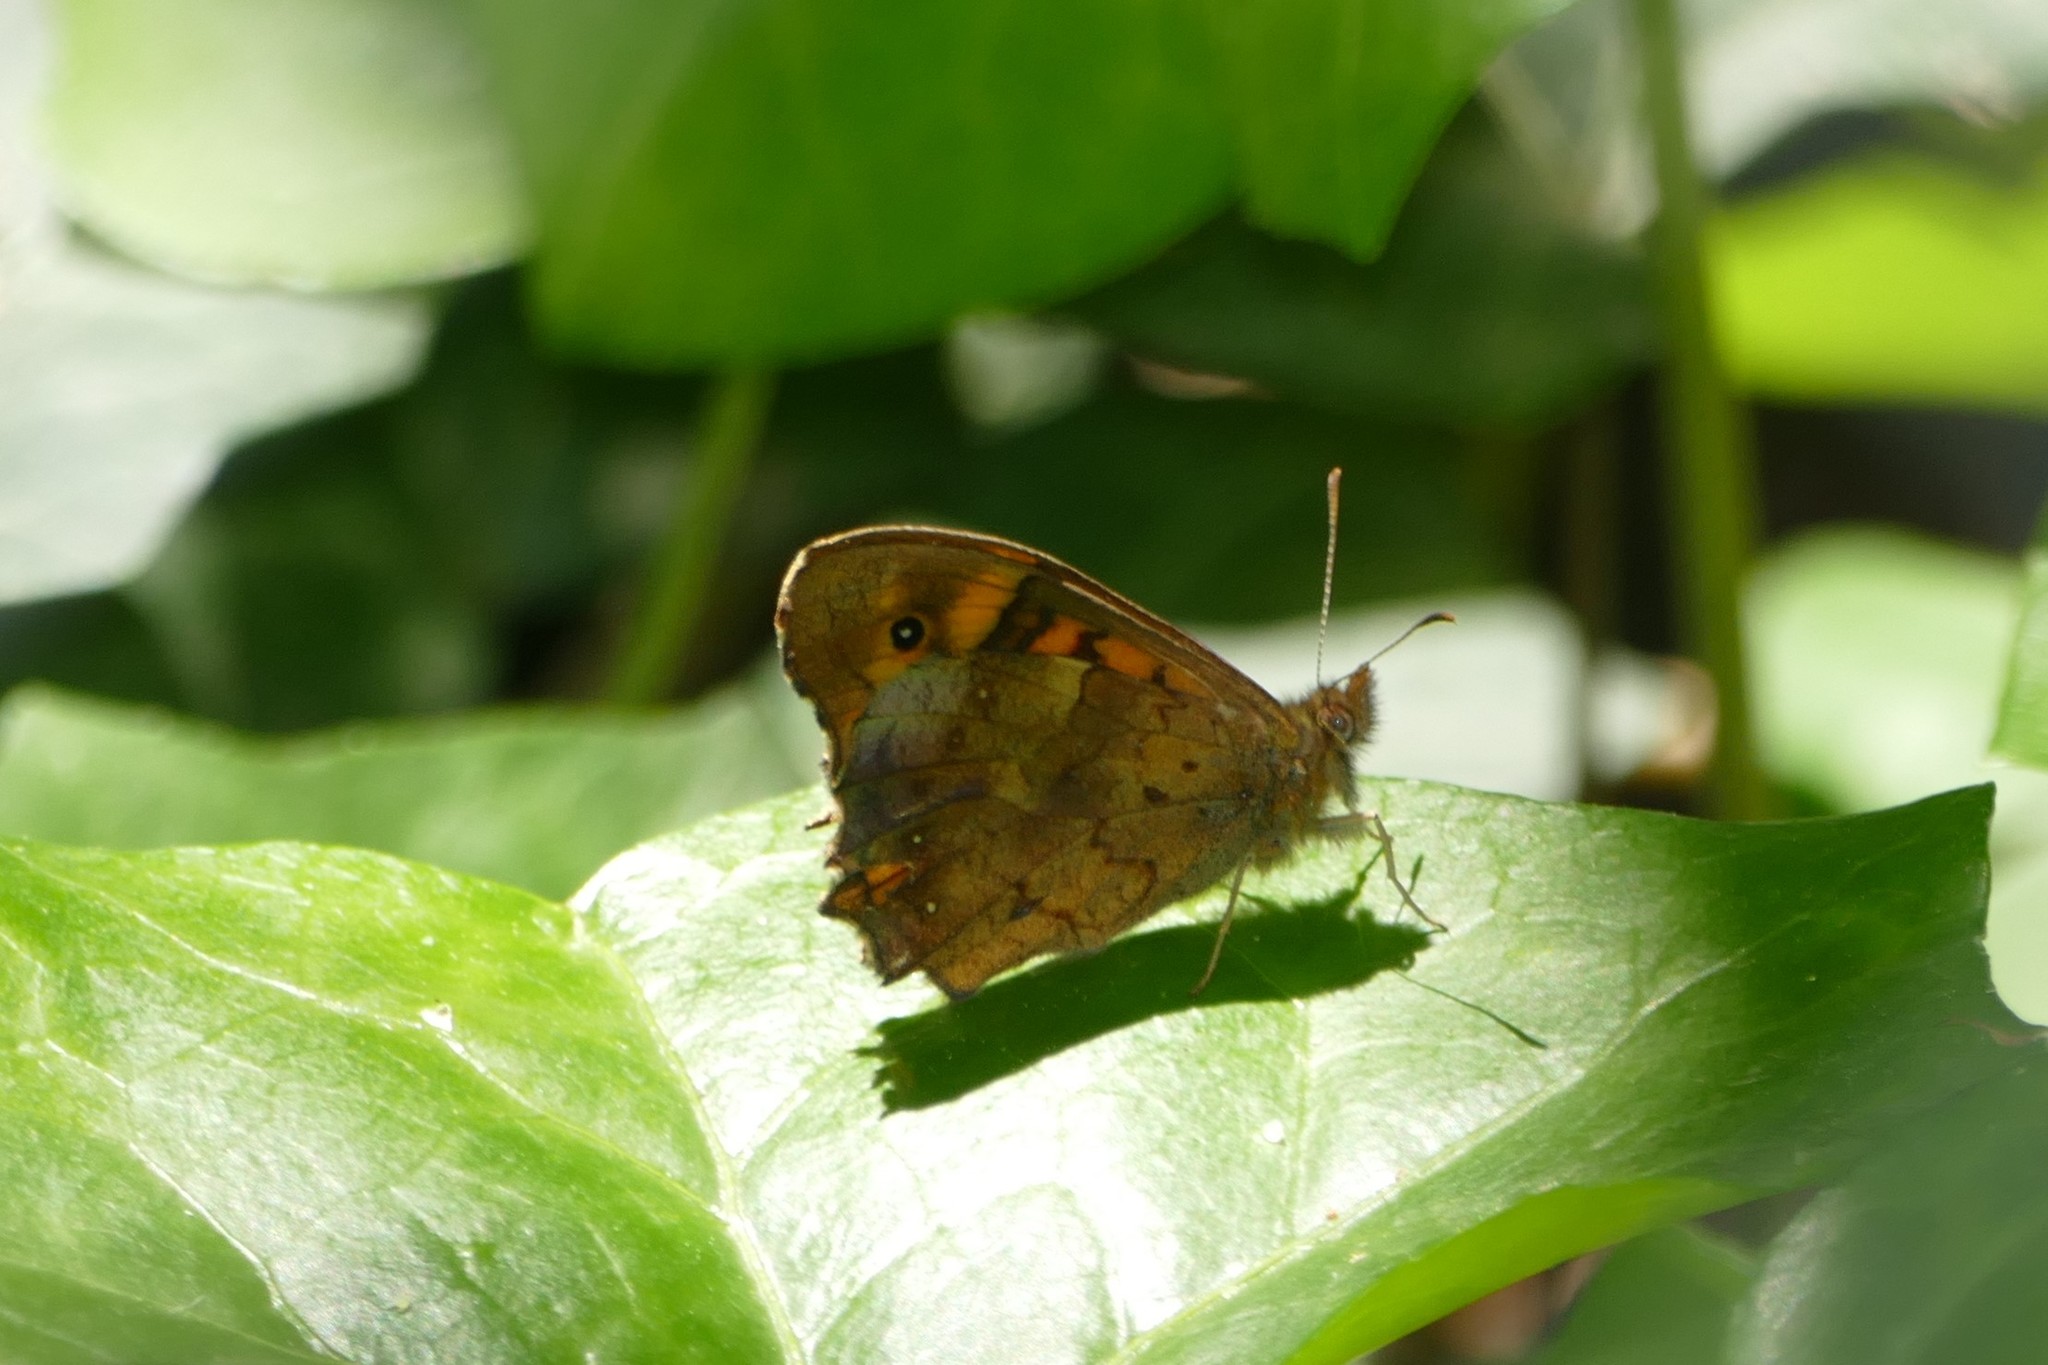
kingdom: Animalia
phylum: Arthropoda
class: Insecta
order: Lepidoptera
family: Nymphalidae
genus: Pararge
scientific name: Pararge aegeria
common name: Speckled wood
